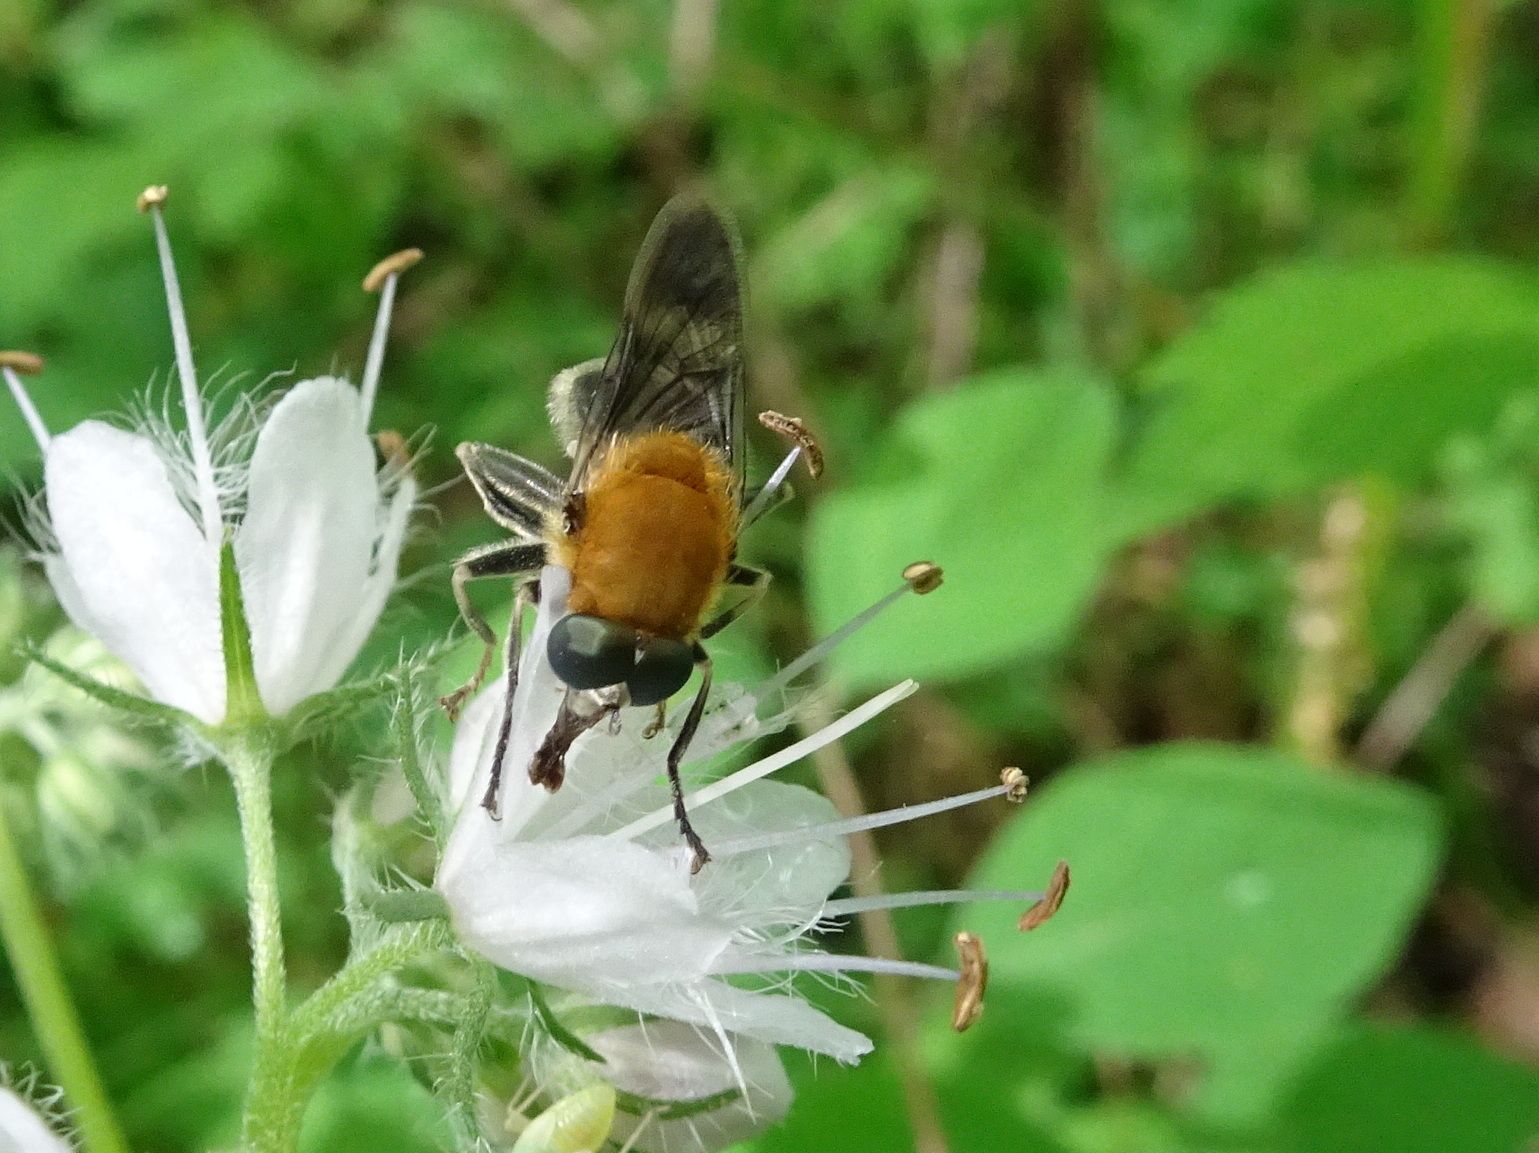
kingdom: Animalia
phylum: Arthropoda
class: Insecta
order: Diptera
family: Syrphidae
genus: Pterallastes
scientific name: Pterallastes thoracicus
